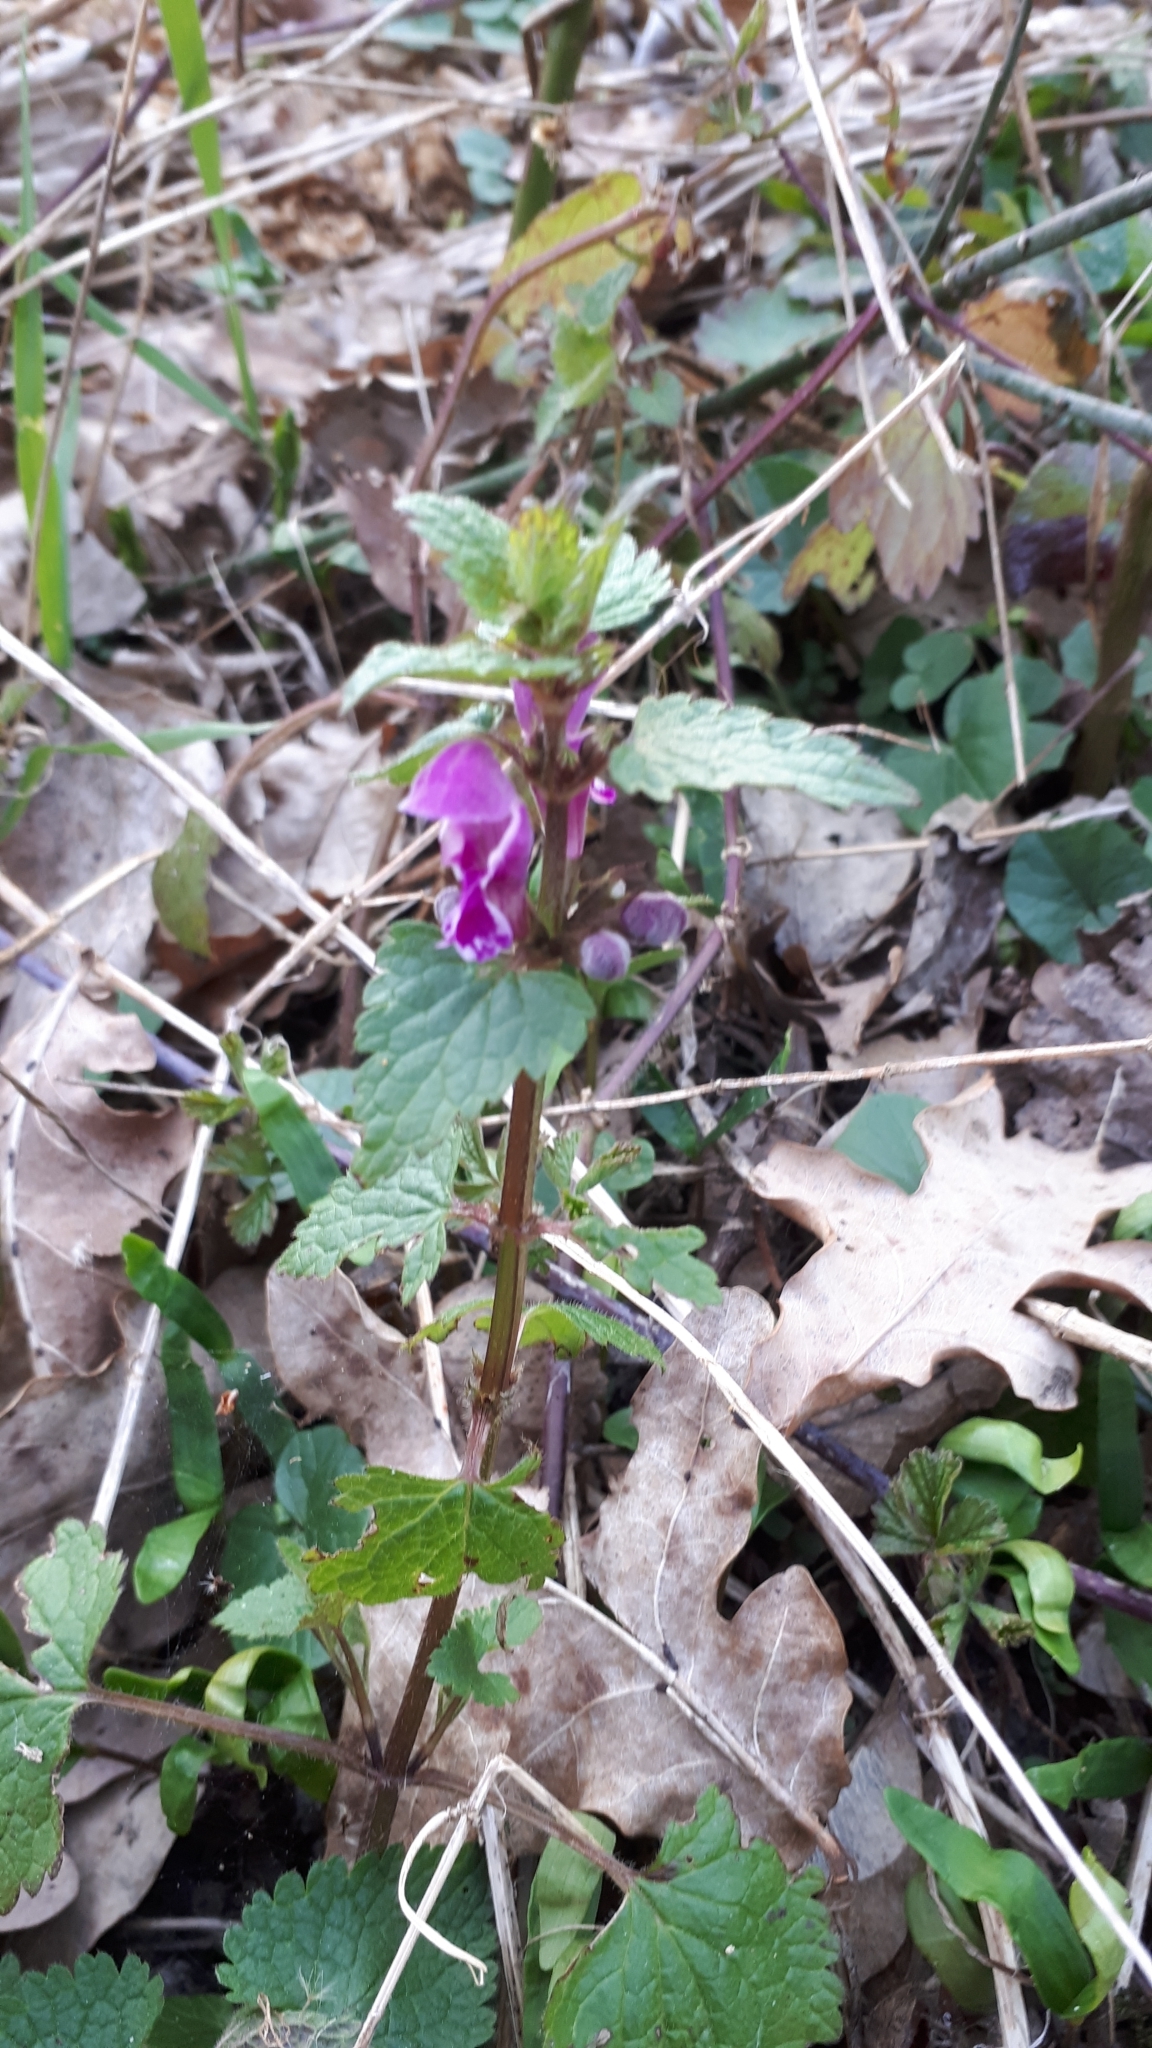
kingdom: Plantae
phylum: Tracheophyta
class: Magnoliopsida
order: Lamiales
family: Lamiaceae
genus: Lamium
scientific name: Lamium maculatum
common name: Spotted dead-nettle
